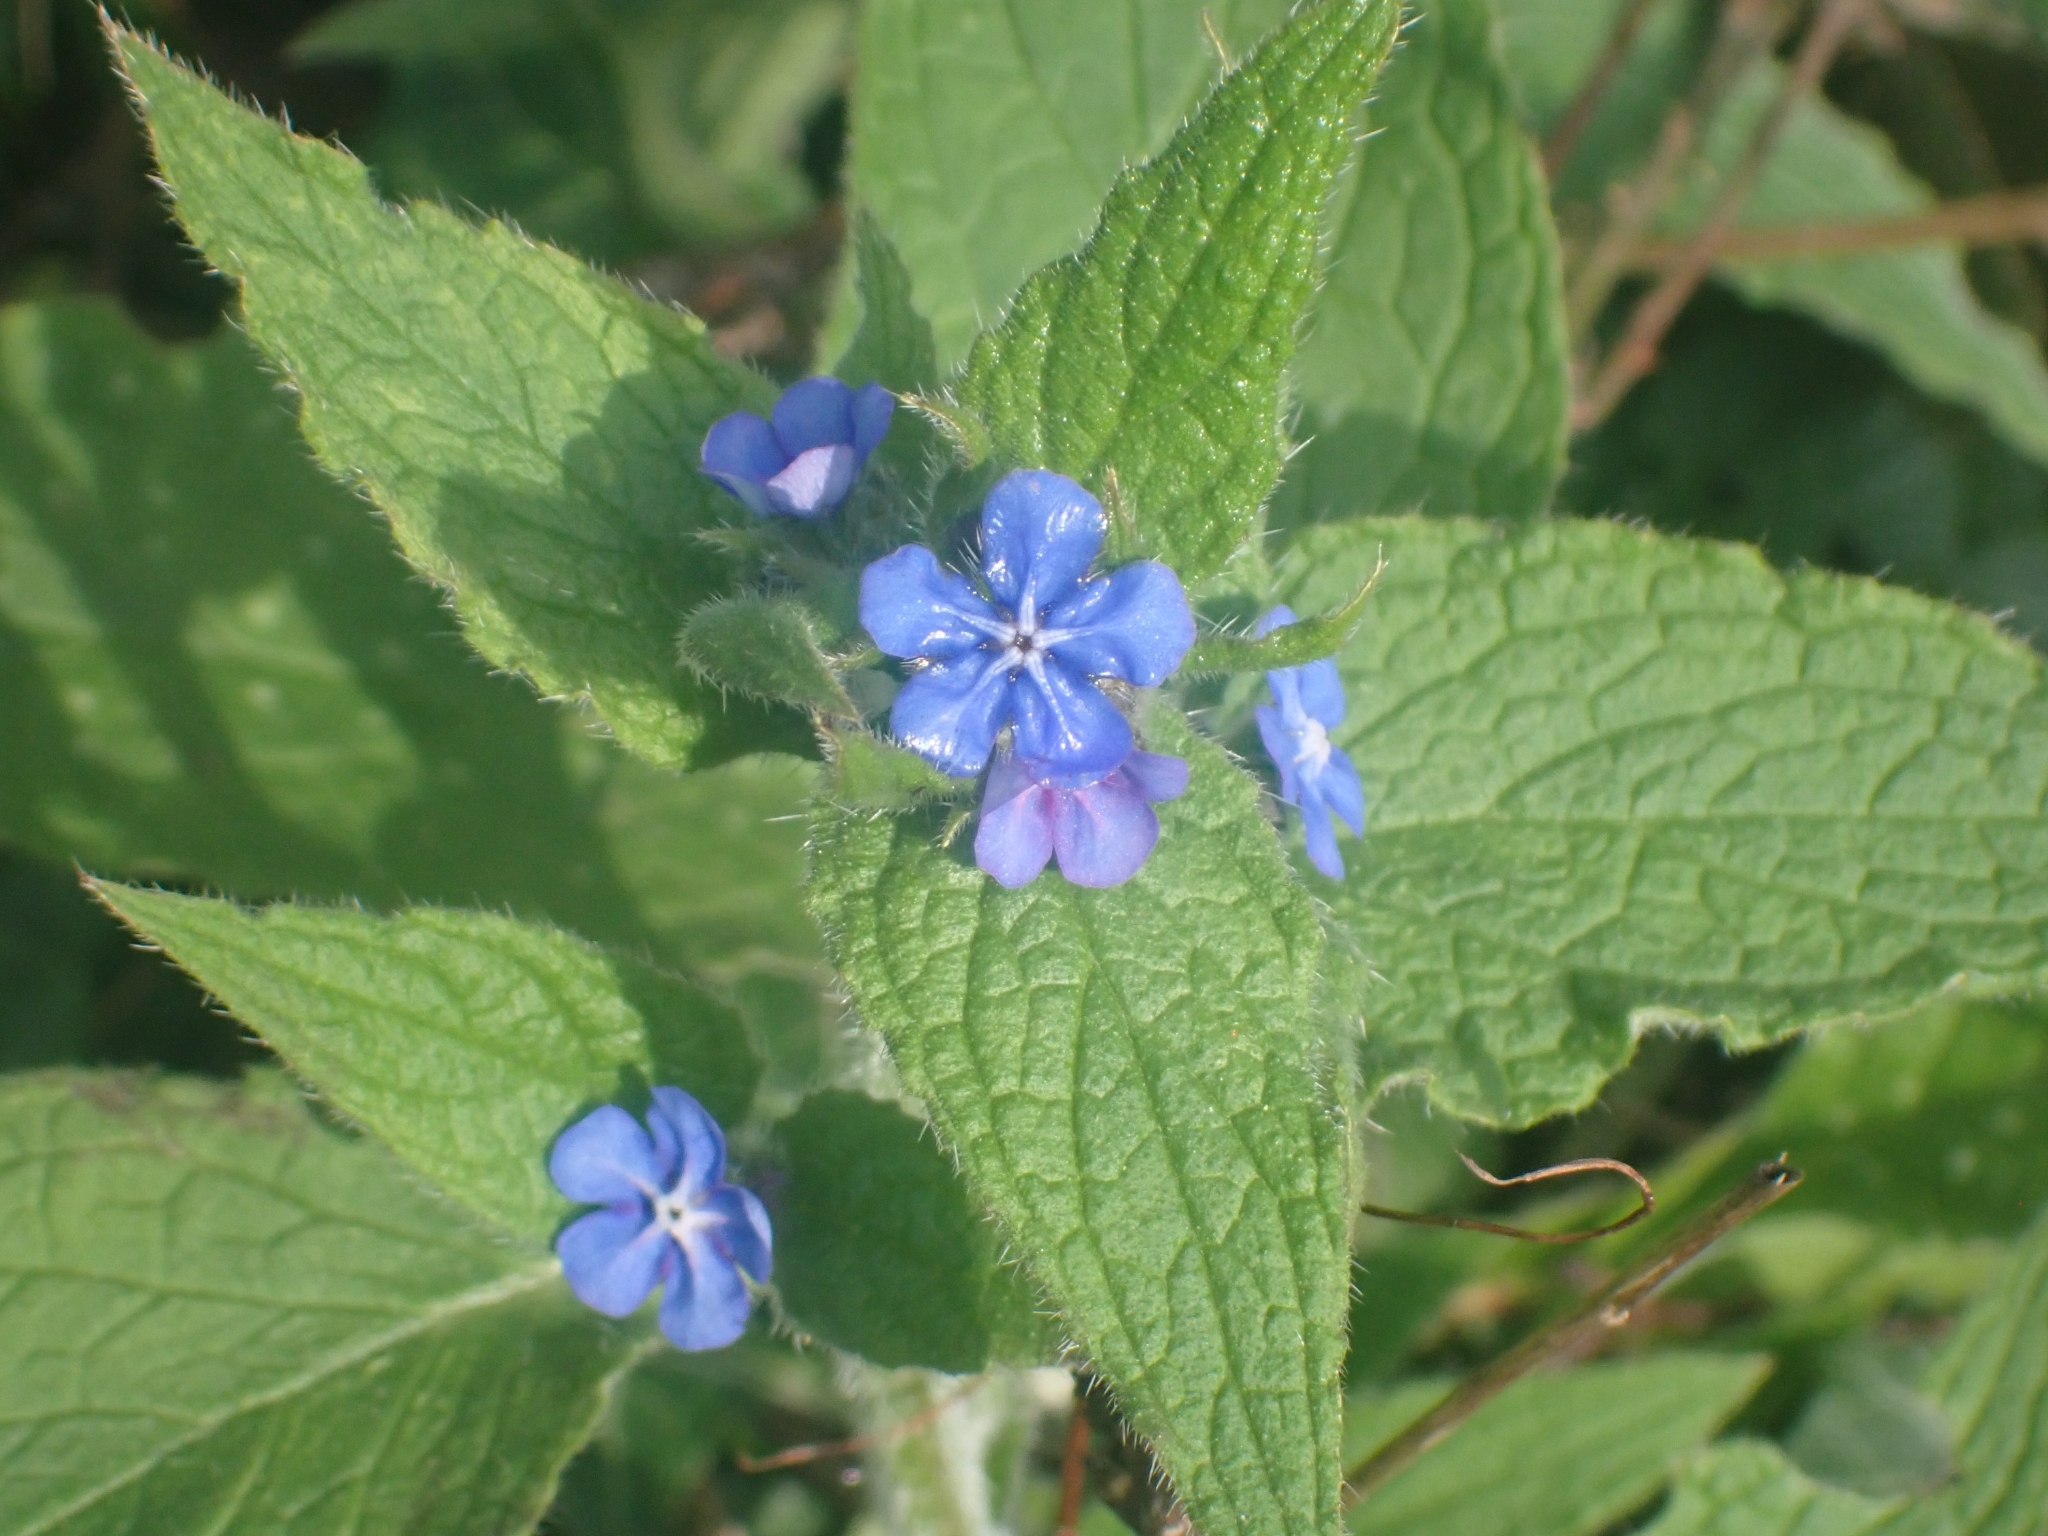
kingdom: Plantae
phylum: Tracheophyta
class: Magnoliopsida
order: Boraginales
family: Boraginaceae
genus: Pentaglottis
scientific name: Pentaglottis sempervirens
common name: Green alkanet
